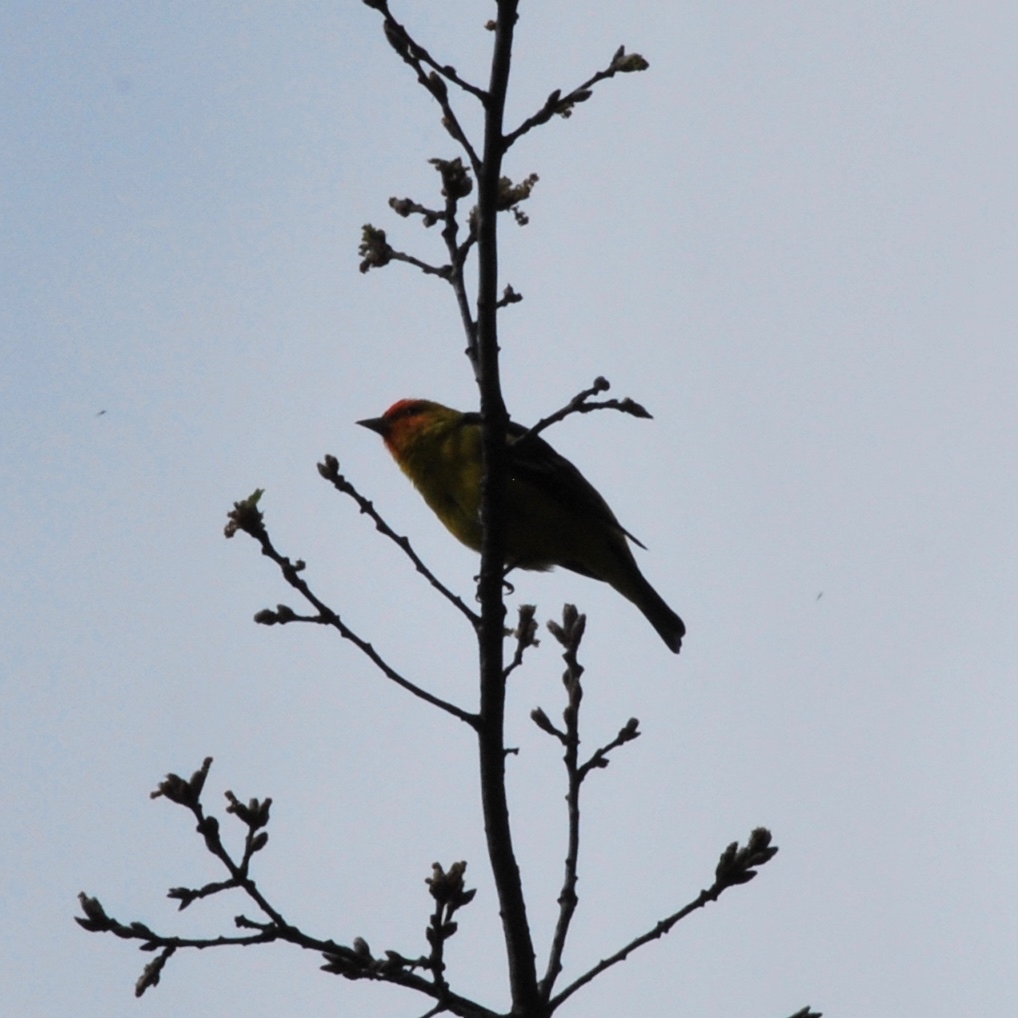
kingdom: Animalia
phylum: Chordata
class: Aves
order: Passeriformes
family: Cardinalidae
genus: Piranga
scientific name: Piranga ludoviciana
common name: Western tanager
